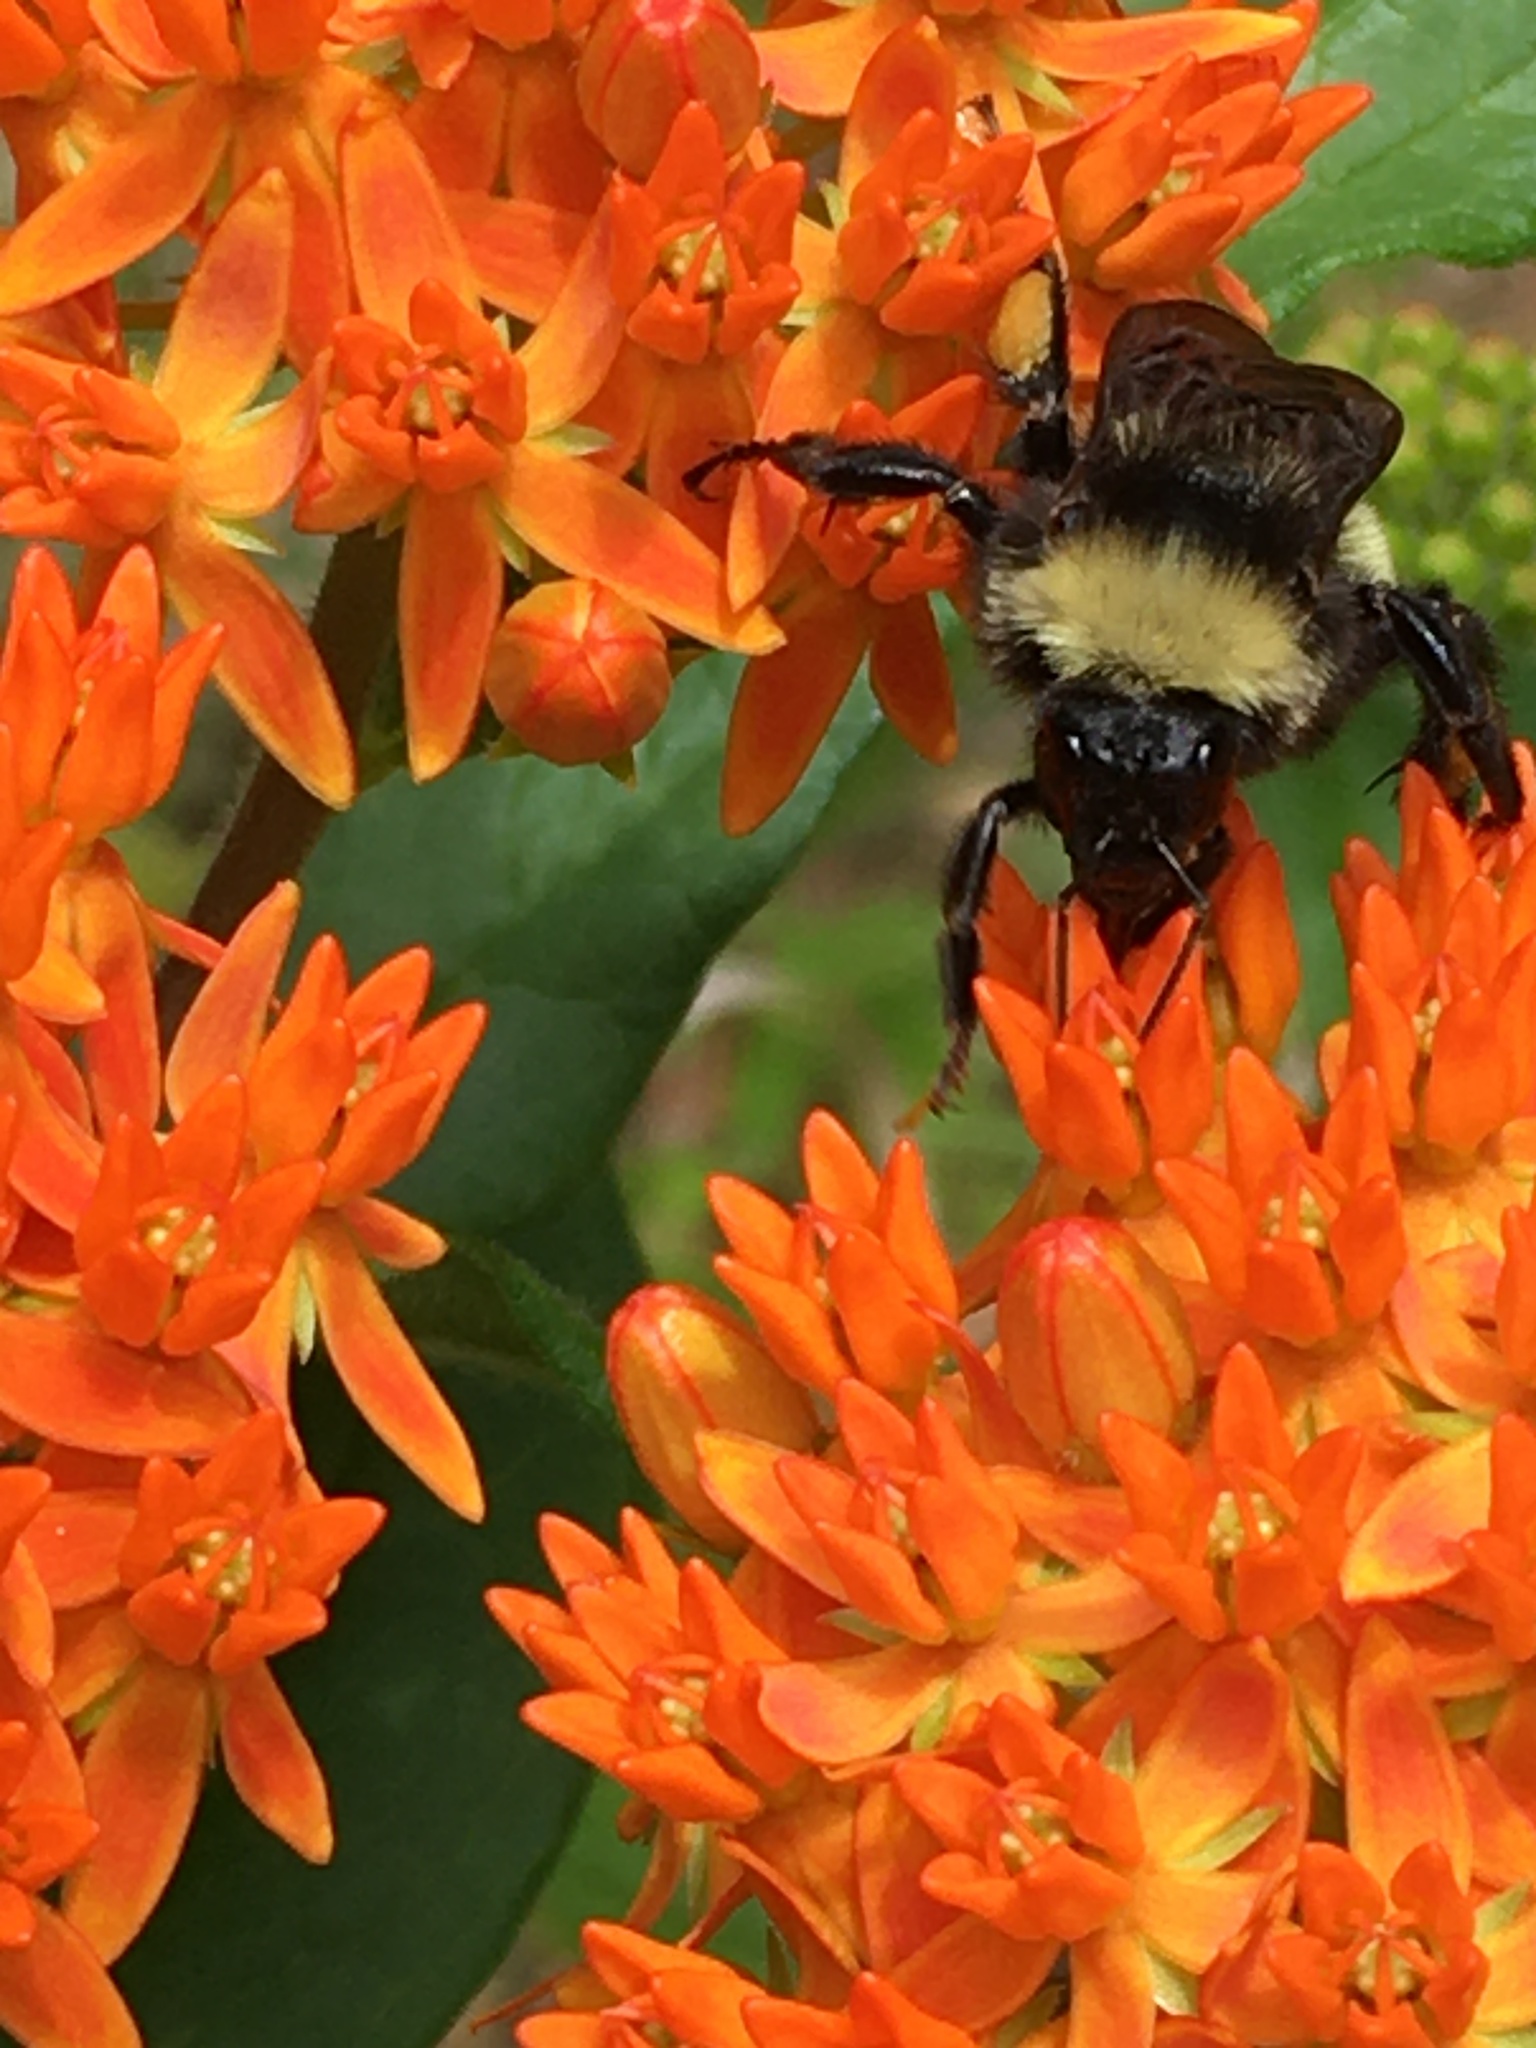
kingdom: Animalia
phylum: Arthropoda
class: Insecta
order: Hymenoptera
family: Apidae
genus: Bombus
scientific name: Bombus pensylvanicus
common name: Bumble bee
